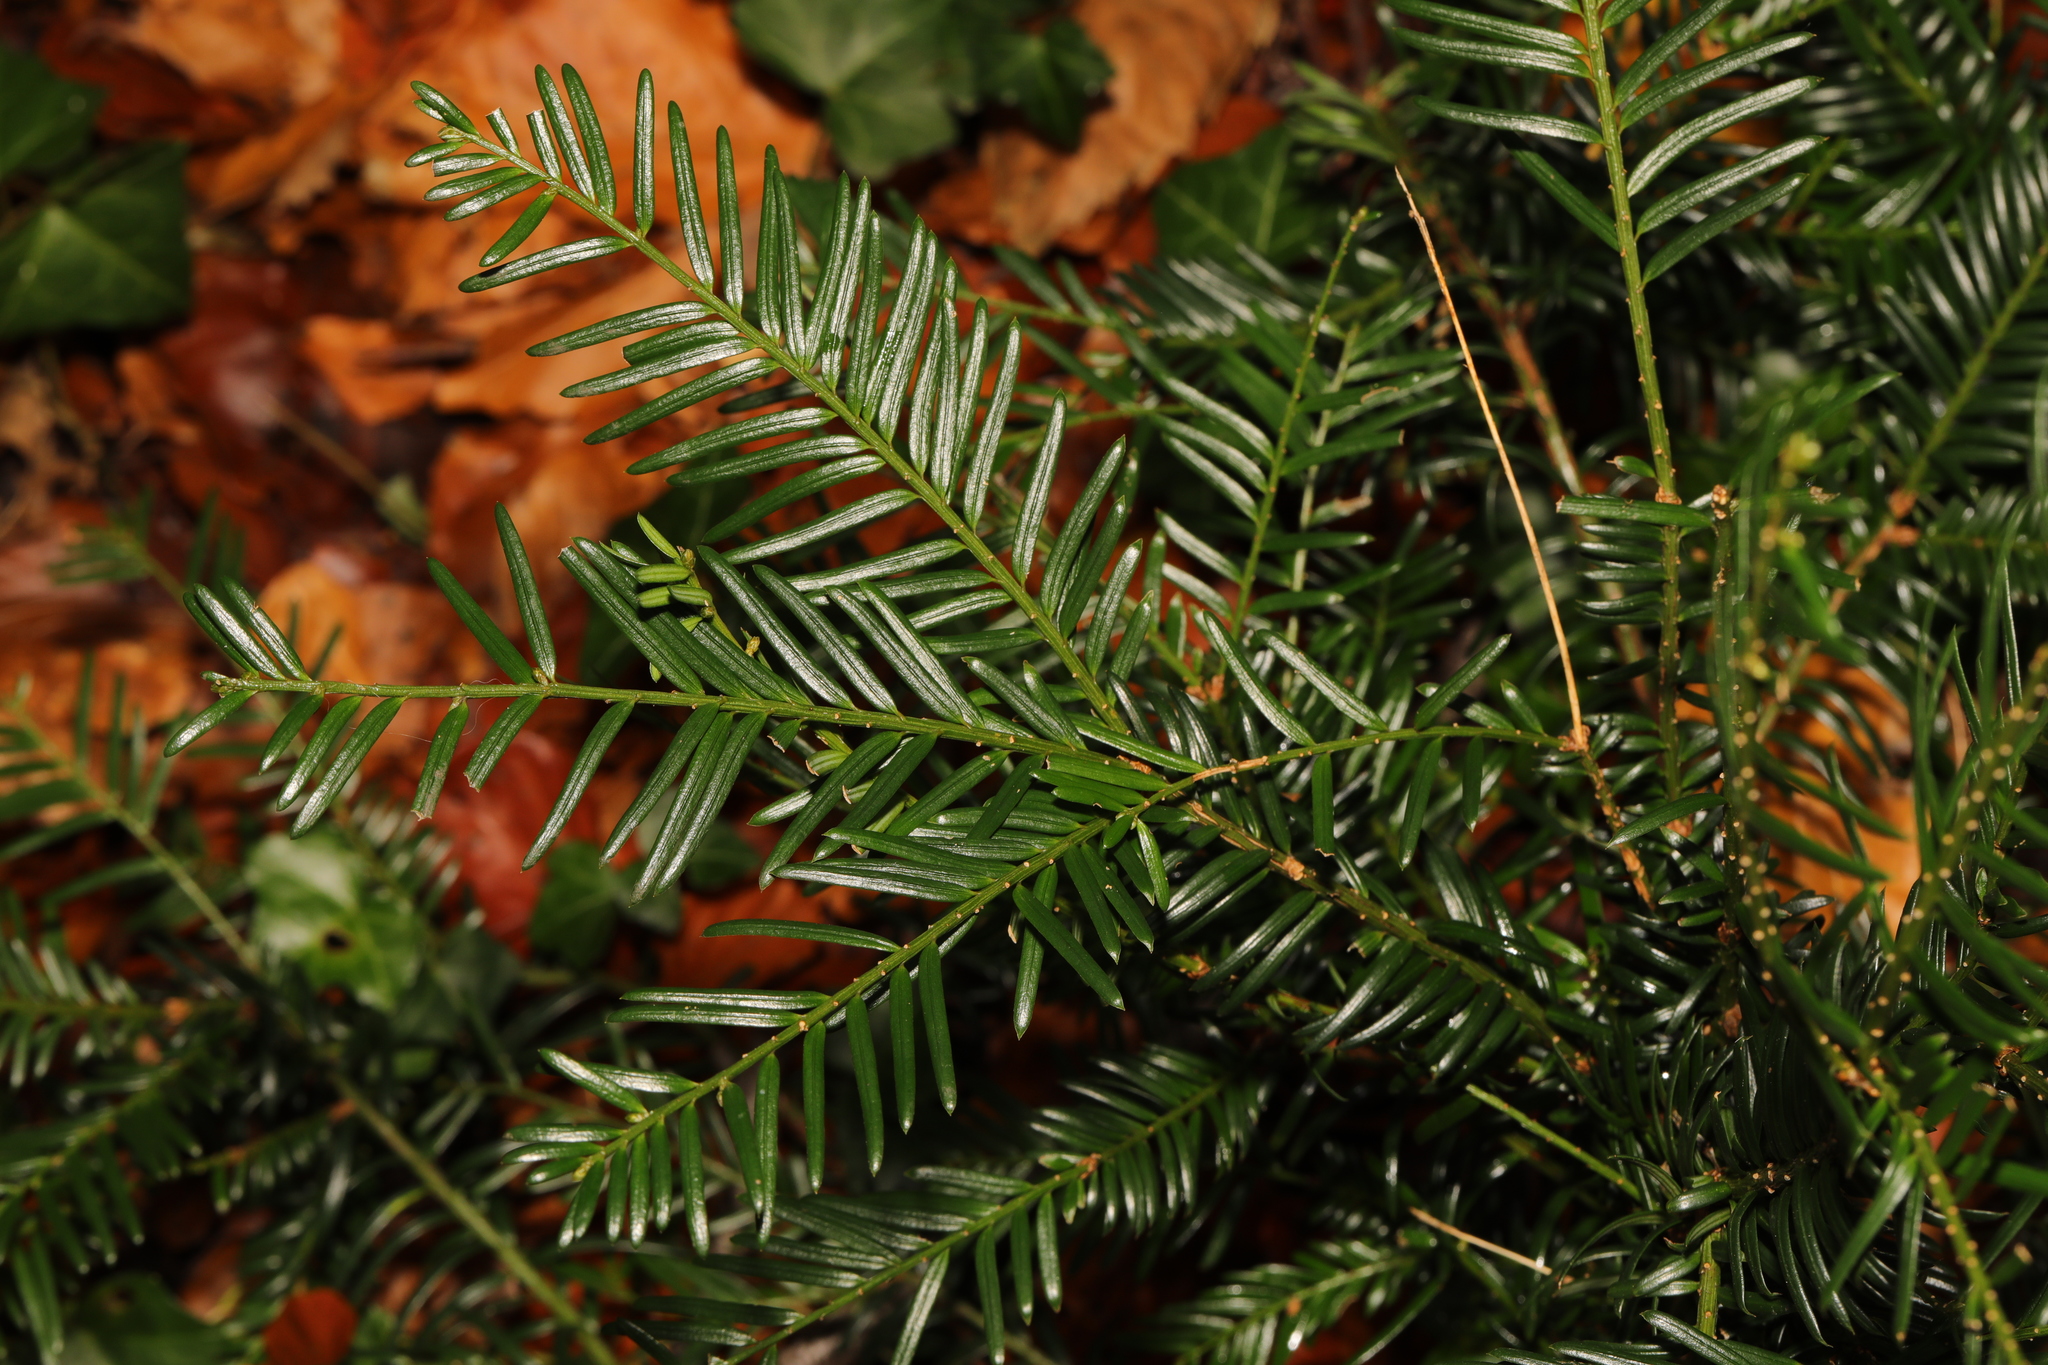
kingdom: Plantae
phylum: Tracheophyta
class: Pinopsida
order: Pinales
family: Taxaceae
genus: Taxus
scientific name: Taxus baccata
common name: Yew
